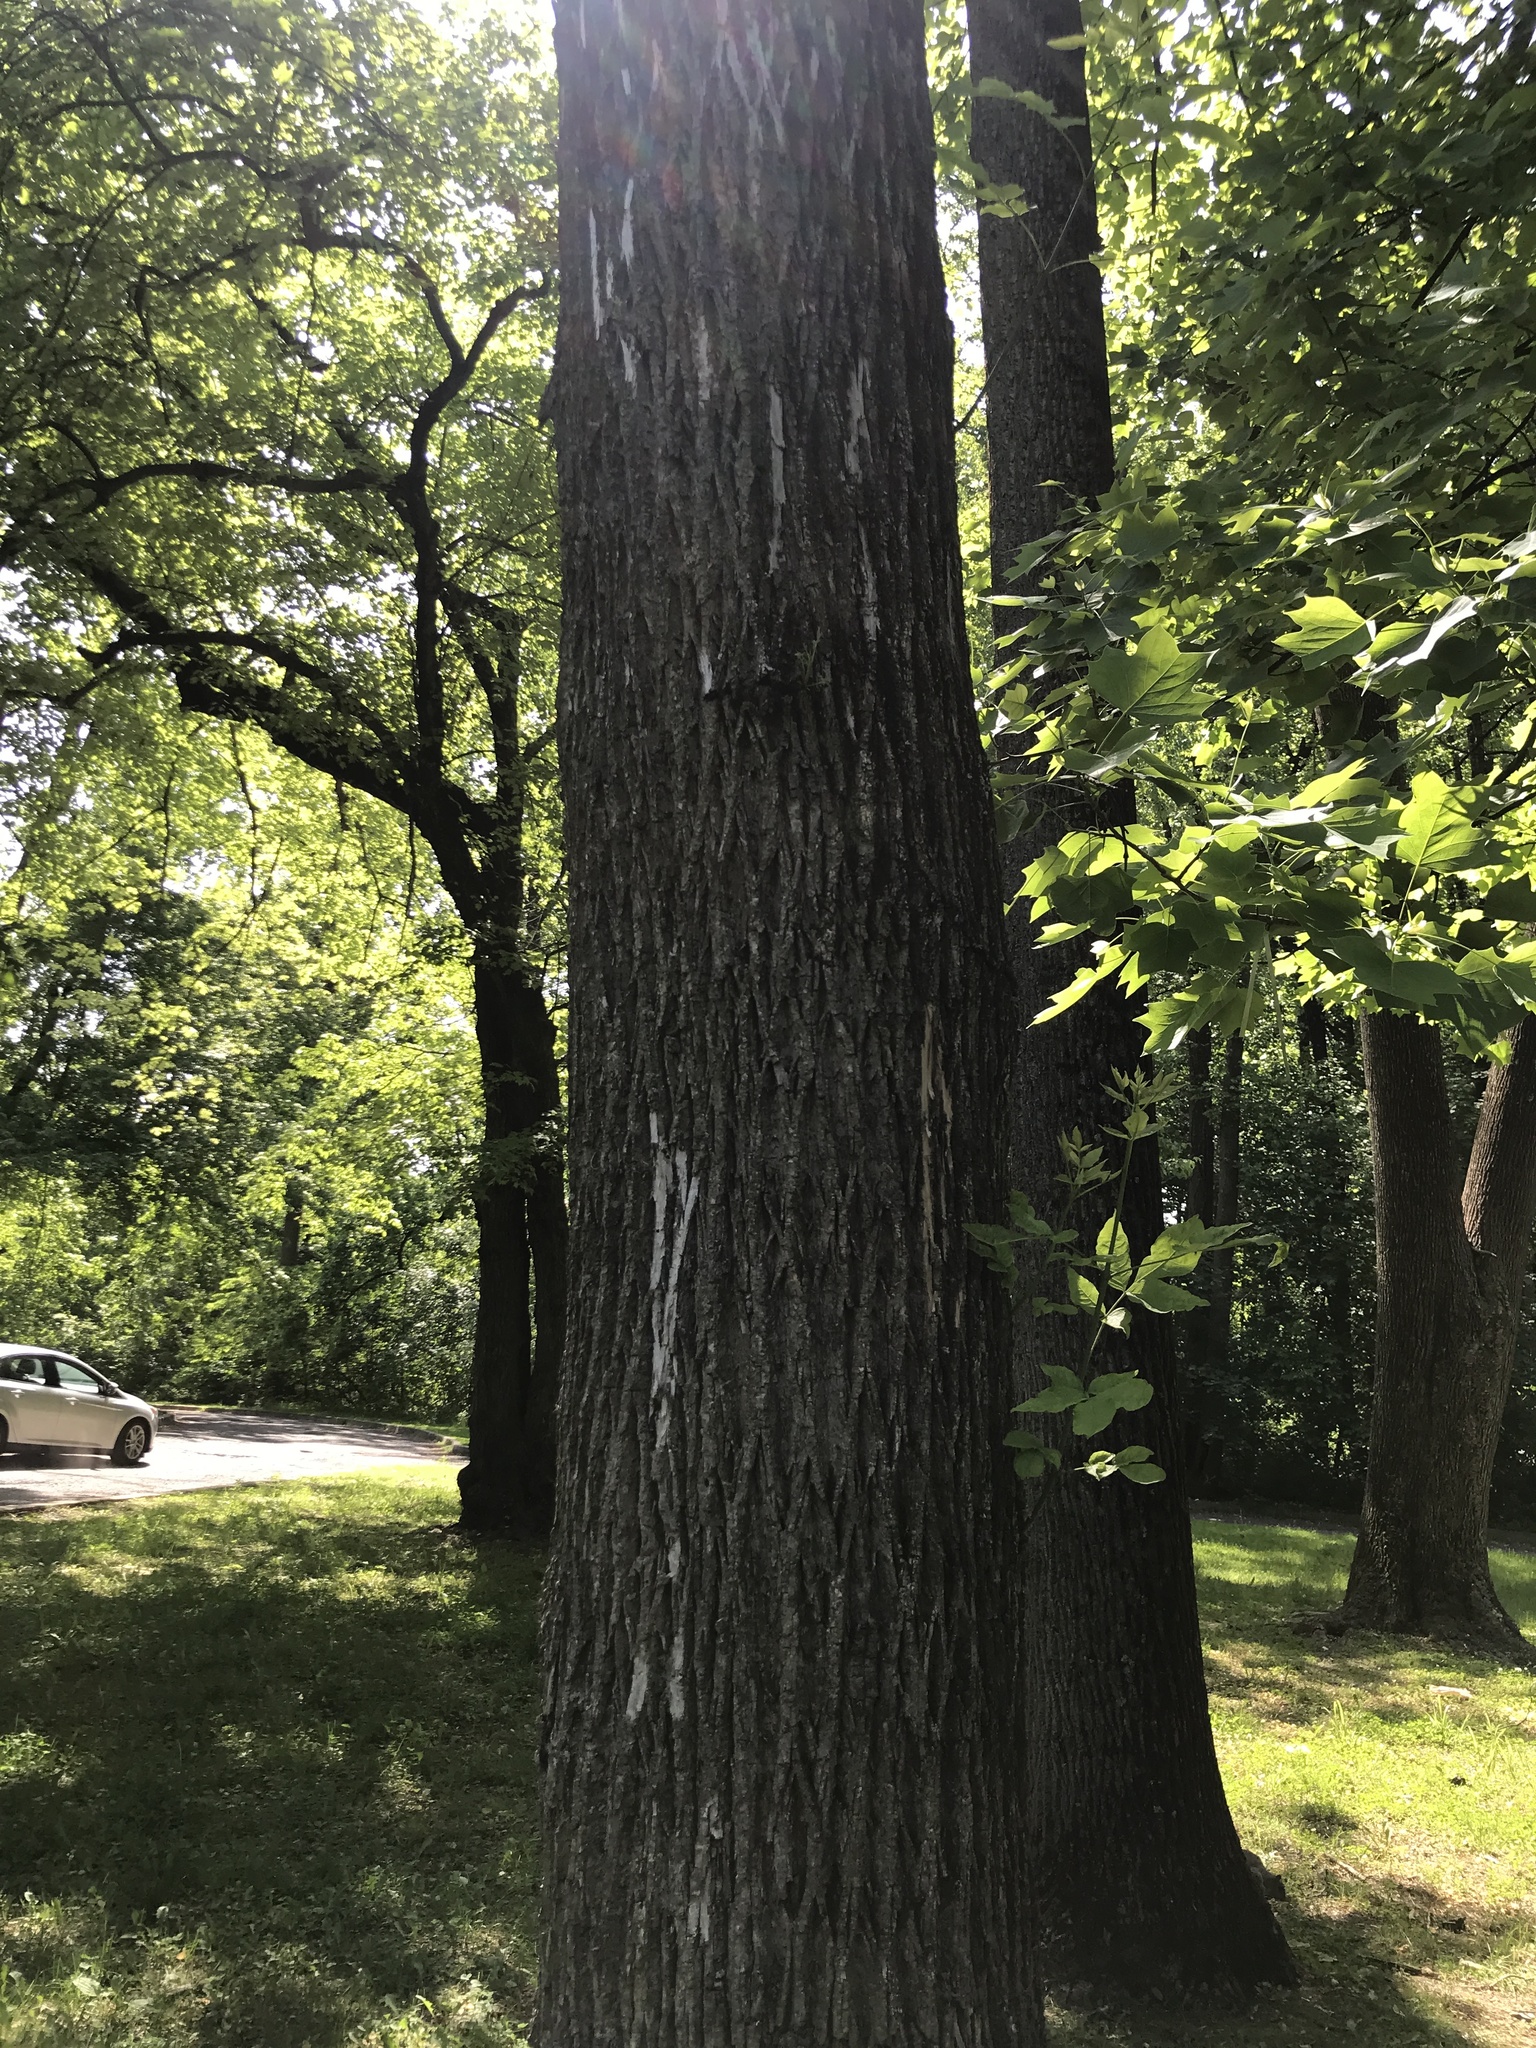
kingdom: Animalia
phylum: Arthropoda
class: Insecta
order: Coleoptera
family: Buprestidae
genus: Agrilus
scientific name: Agrilus planipennis
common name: Emerald ash borer
